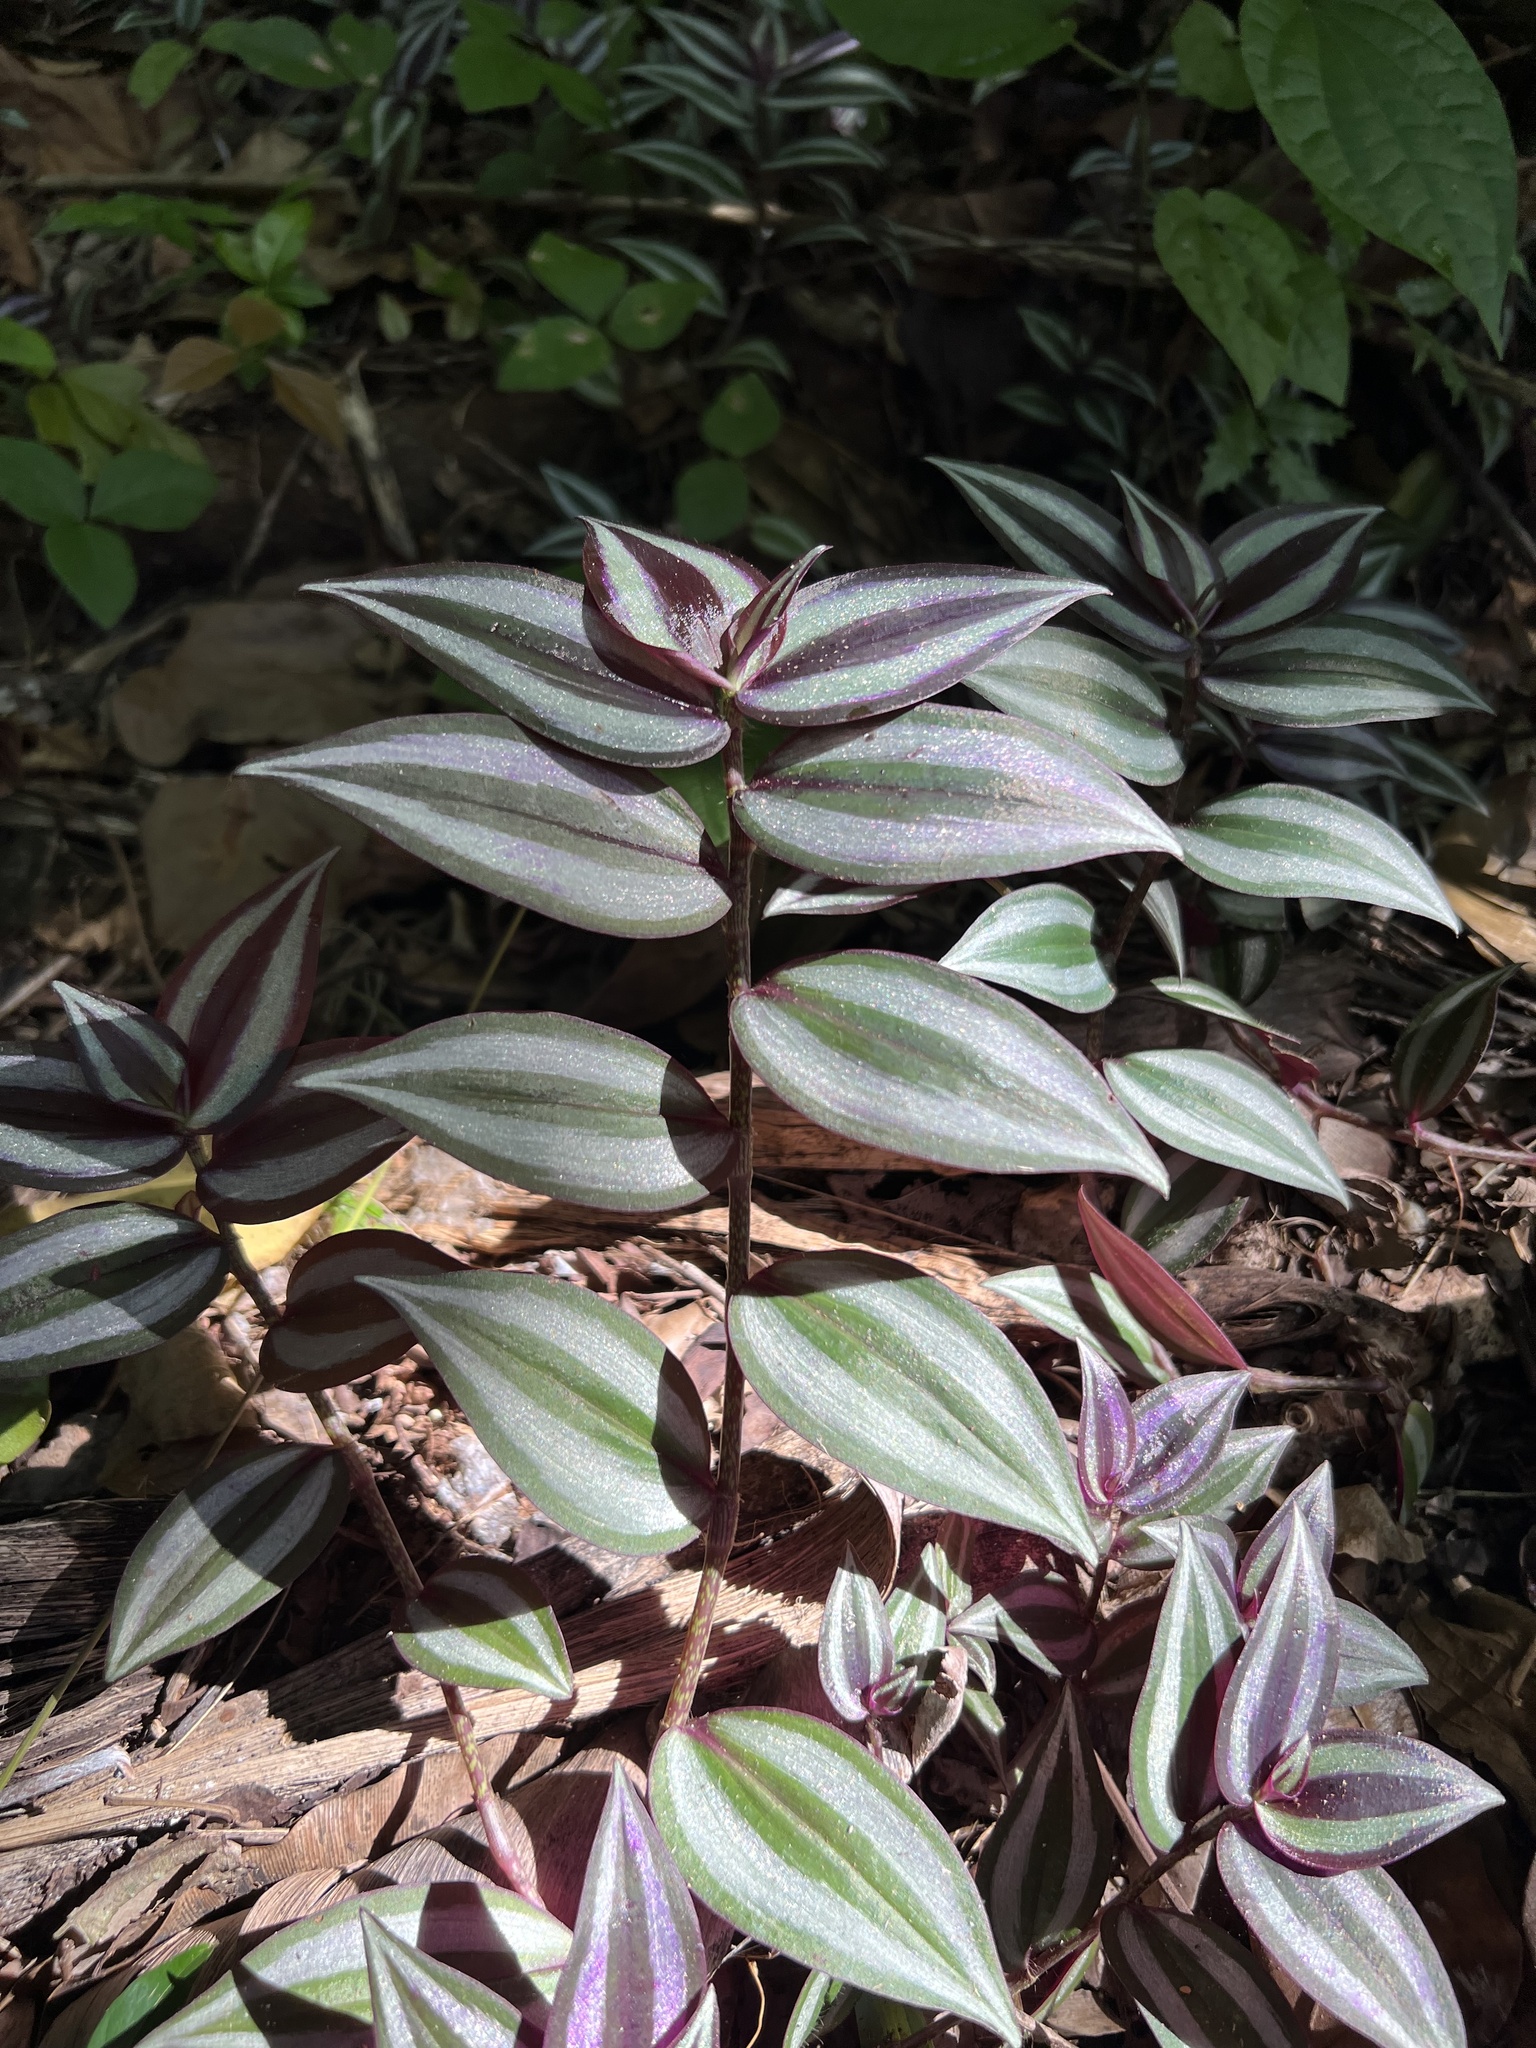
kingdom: Plantae
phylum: Tracheophyta
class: Liliopsida
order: Commelinales
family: Commelinaceae
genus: Tradescantia
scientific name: Tradescantia zebrina
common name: Inchplant
